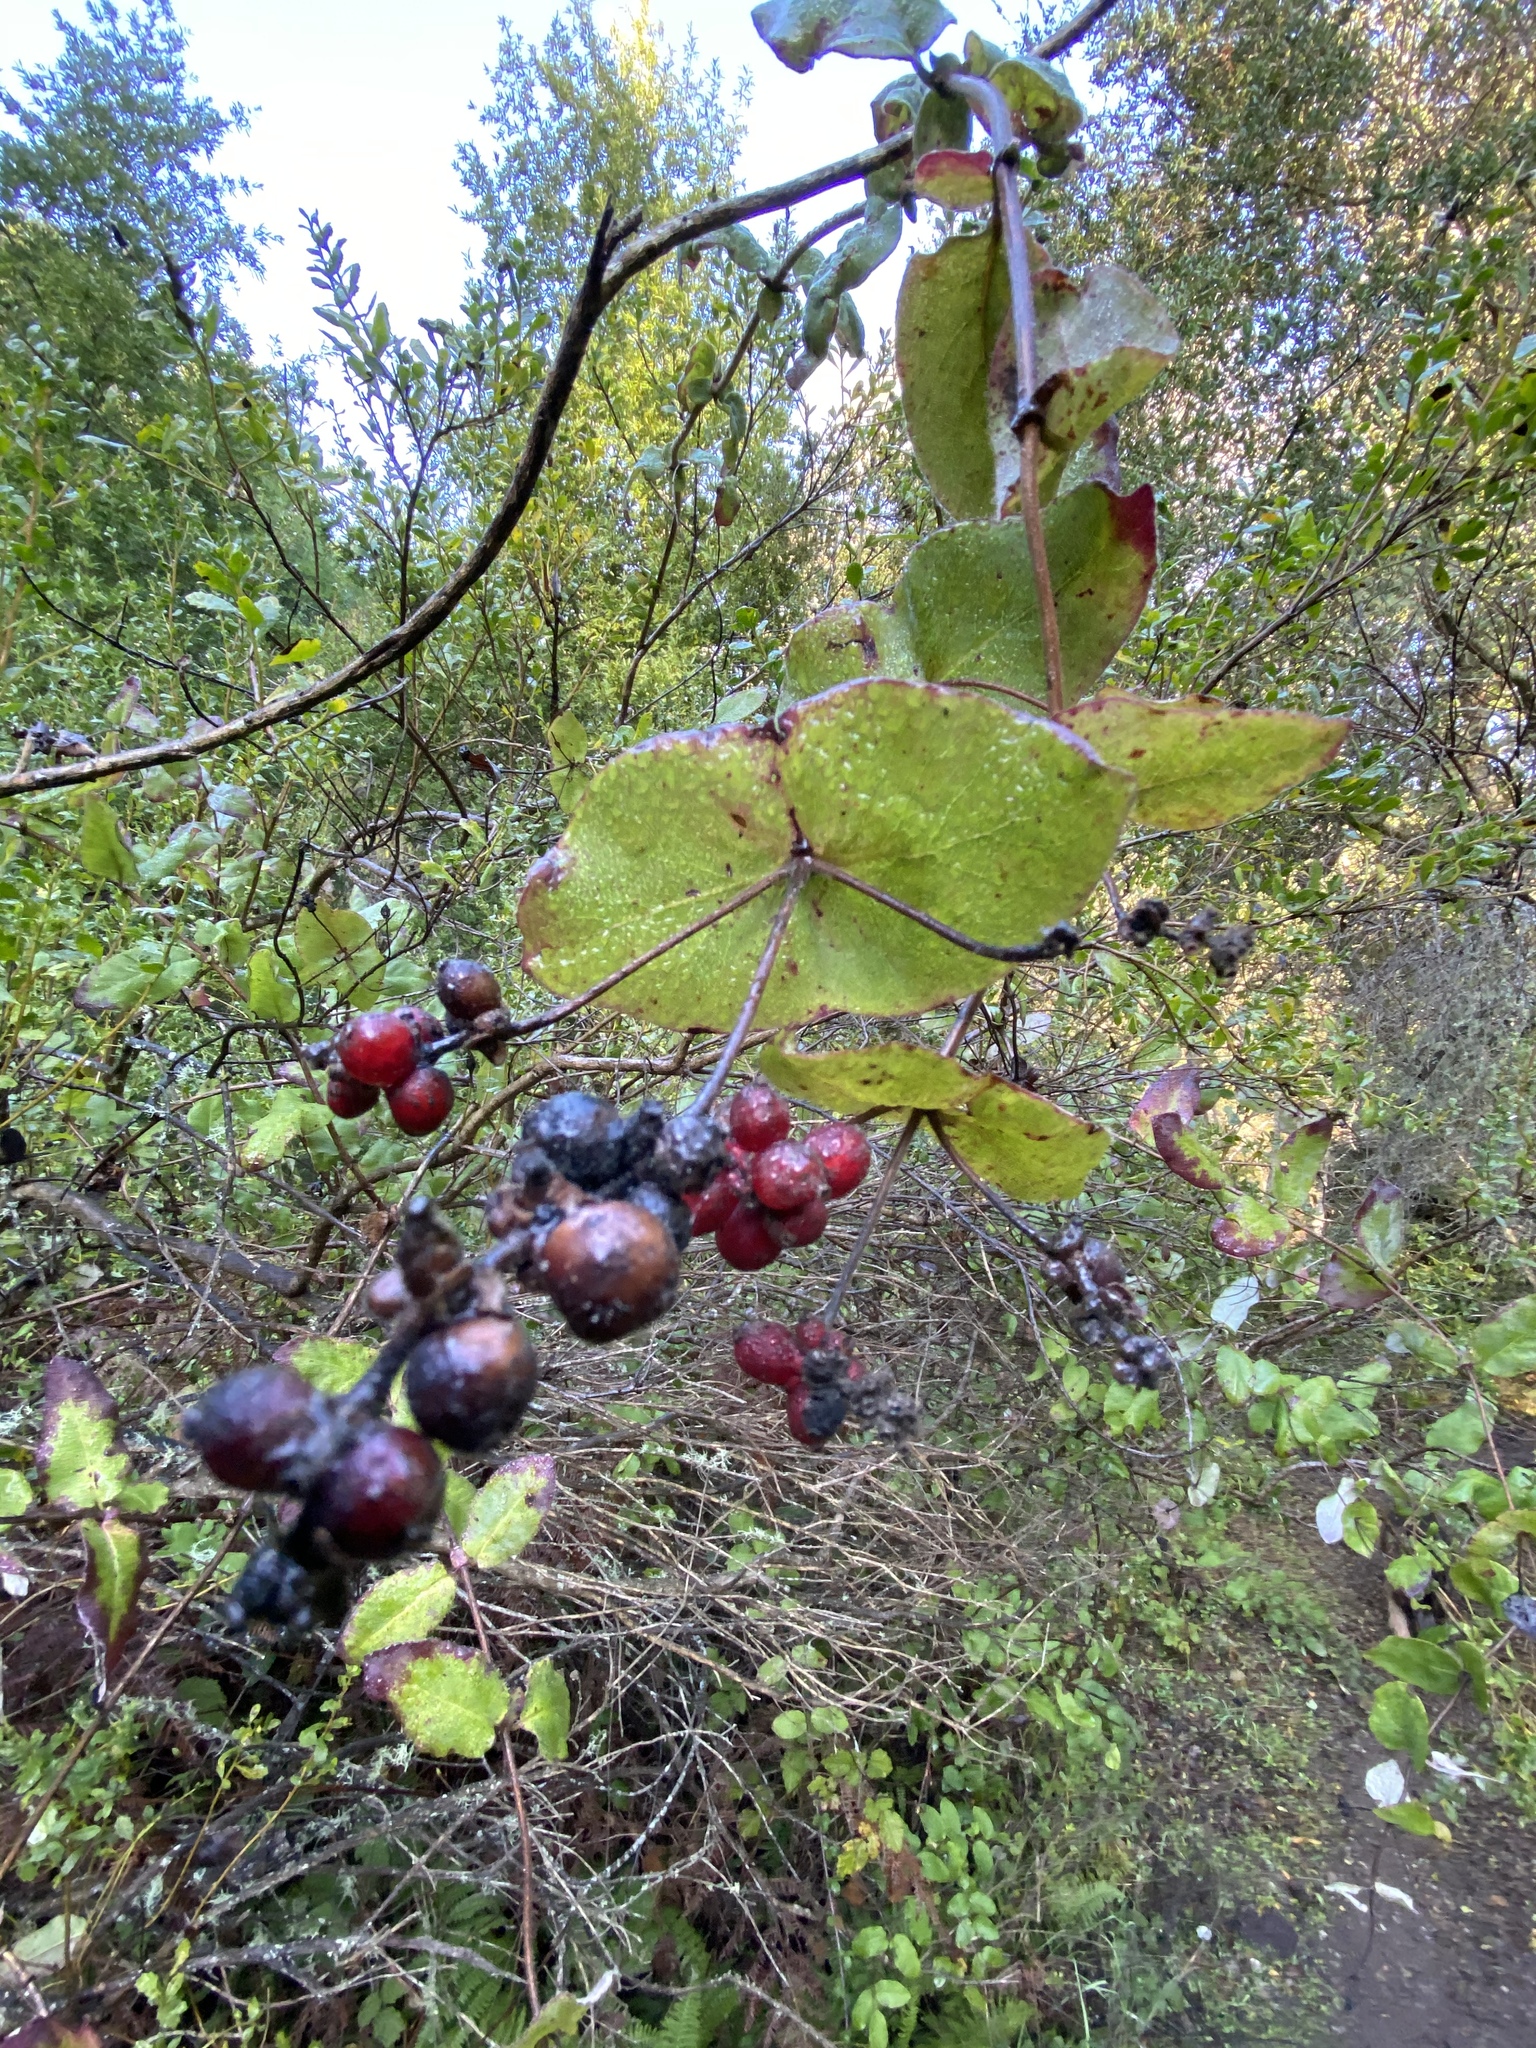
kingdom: Plantae
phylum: Tracheophyta
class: Magnoliopsida
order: Dipsacales
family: Caprifoliaceae
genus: Lonicera
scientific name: Lonicera hispidula
